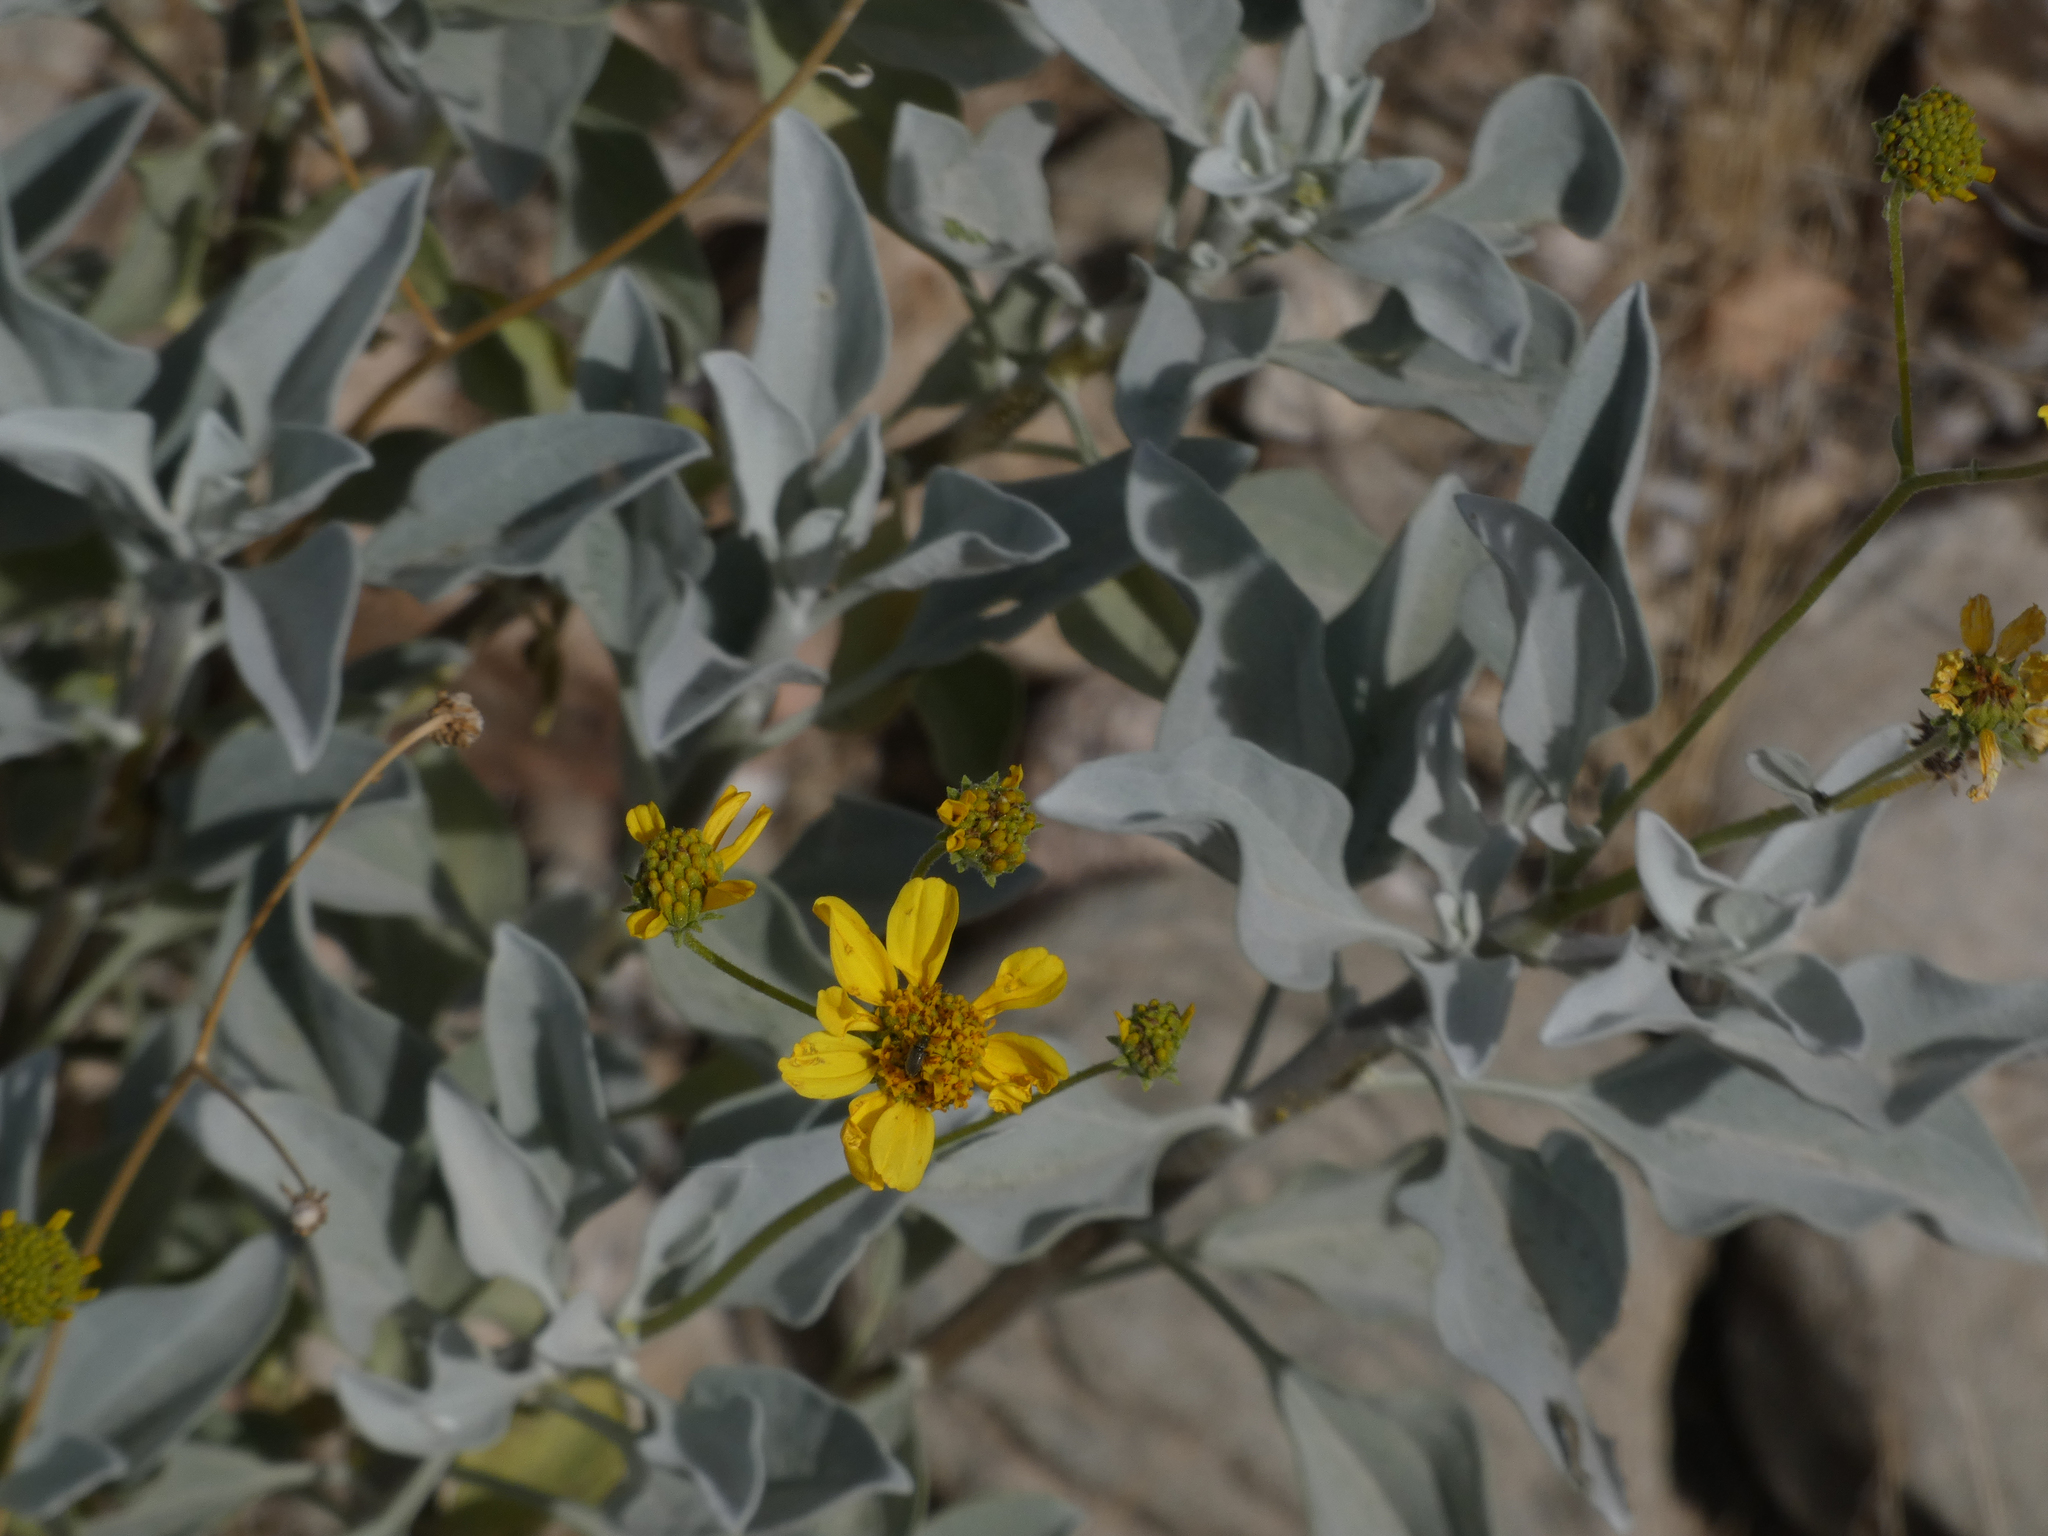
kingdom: Plantae
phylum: Tracheophyta
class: Magnoliopsida
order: Asterales
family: Asteraceae
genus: Encelia
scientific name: Encelia farinosa
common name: Brittlebush
